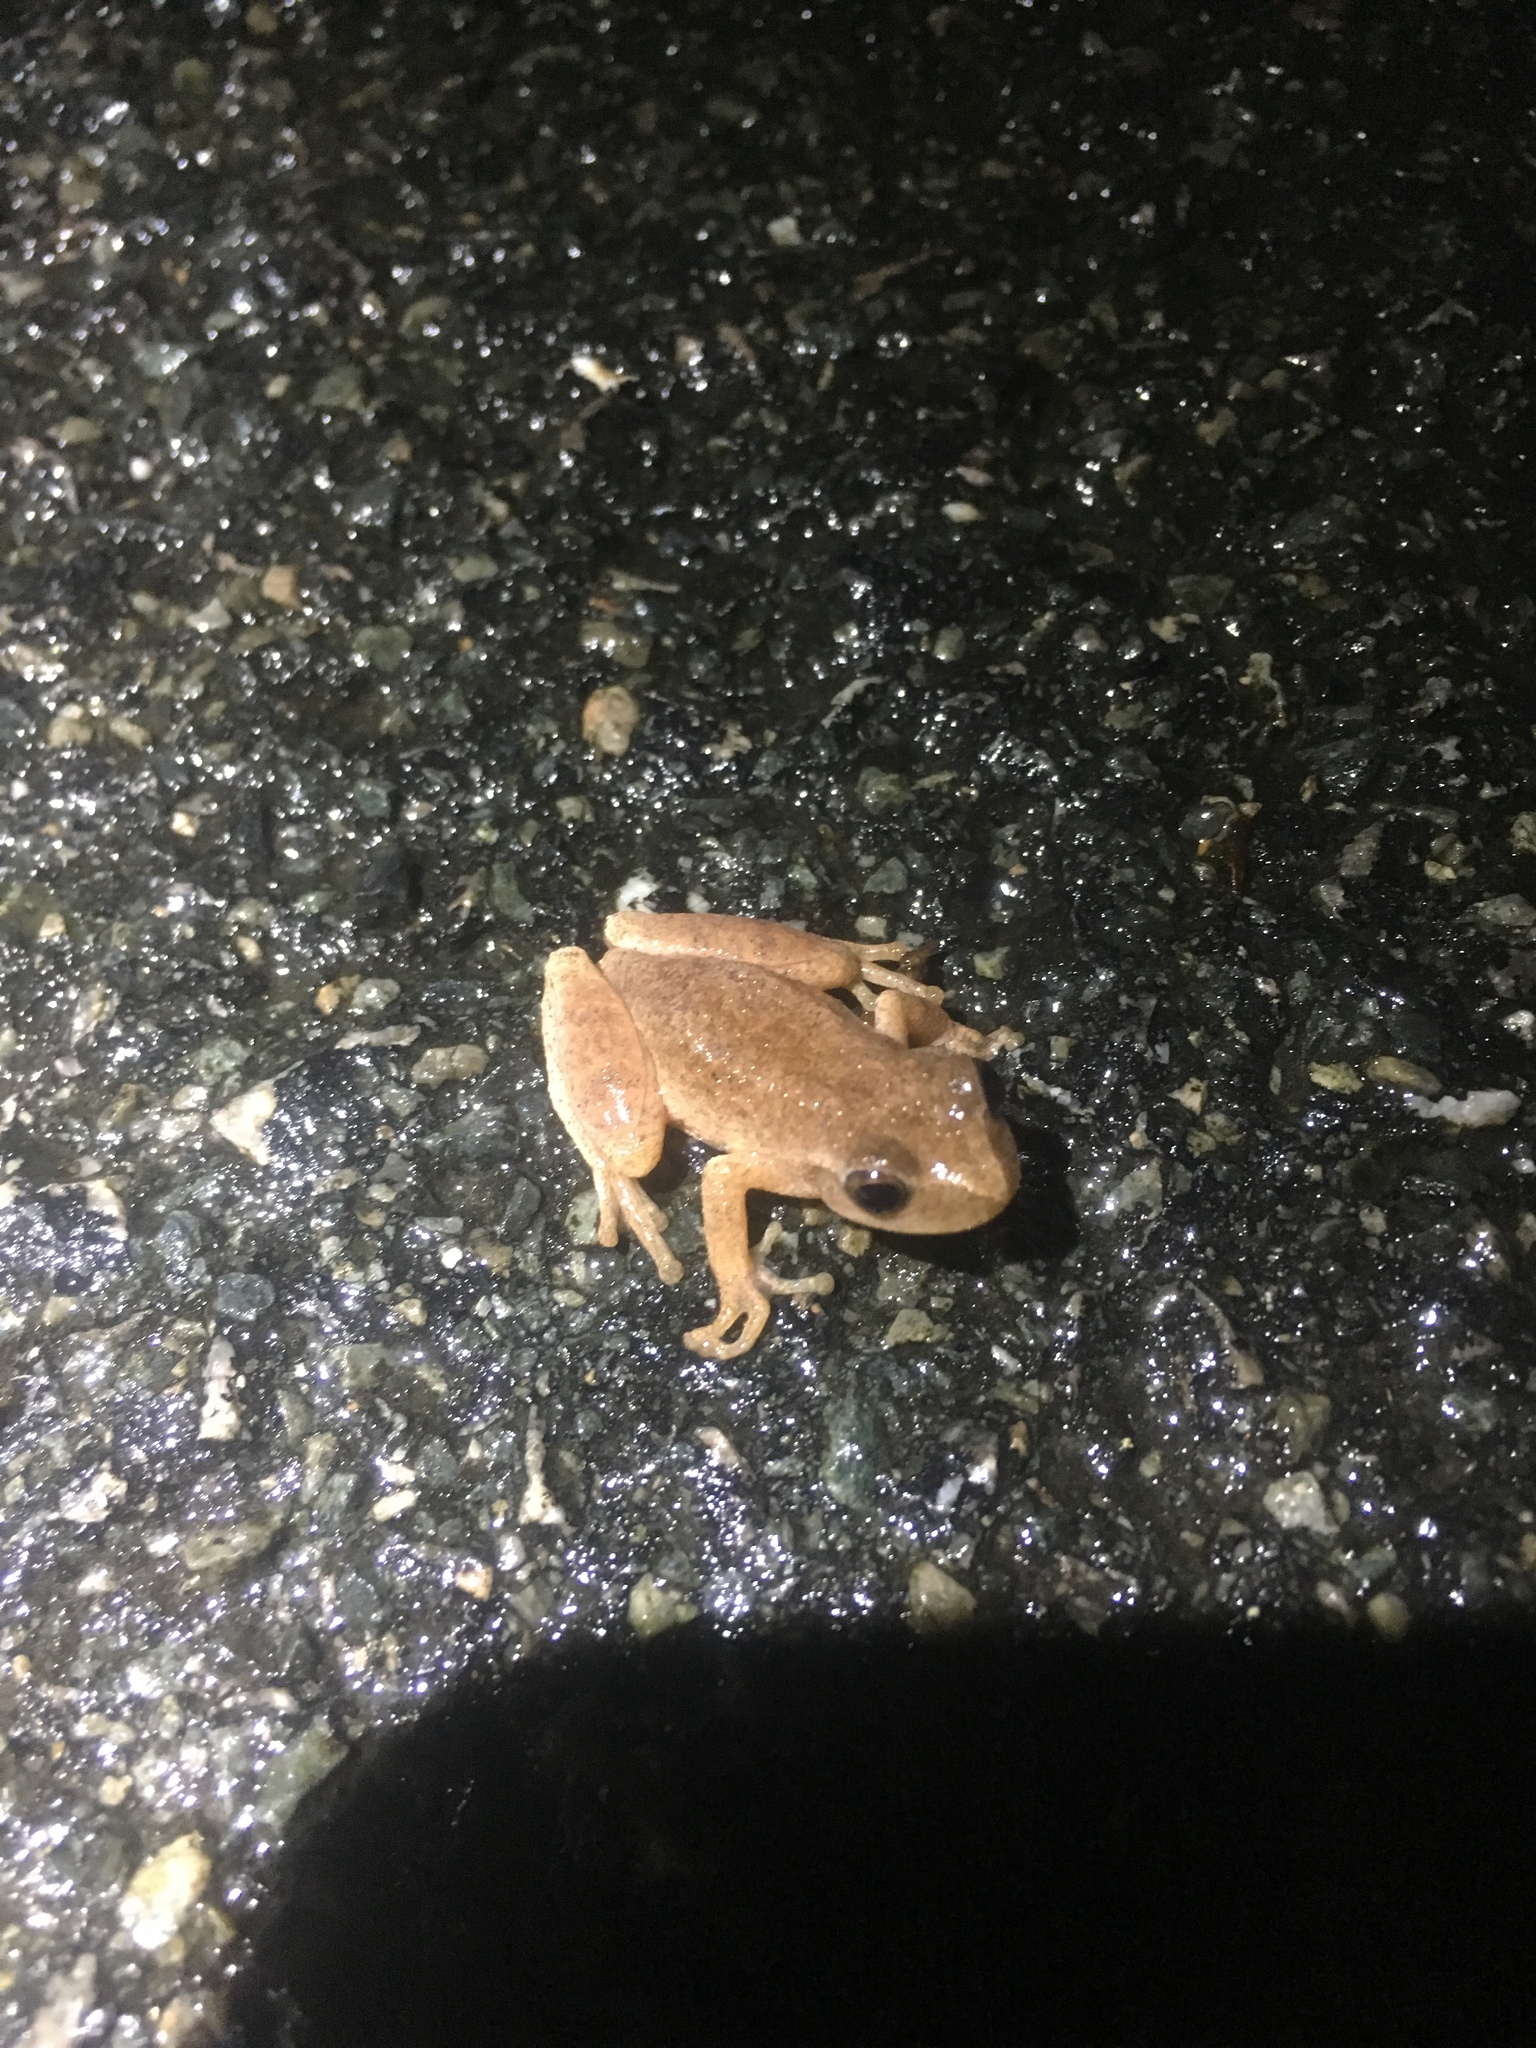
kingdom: Animalia
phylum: Chordata
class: Amphibia
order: Anura
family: Hylidae
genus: Pseudacris
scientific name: Pseudacris crucifer
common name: Spring peeper
